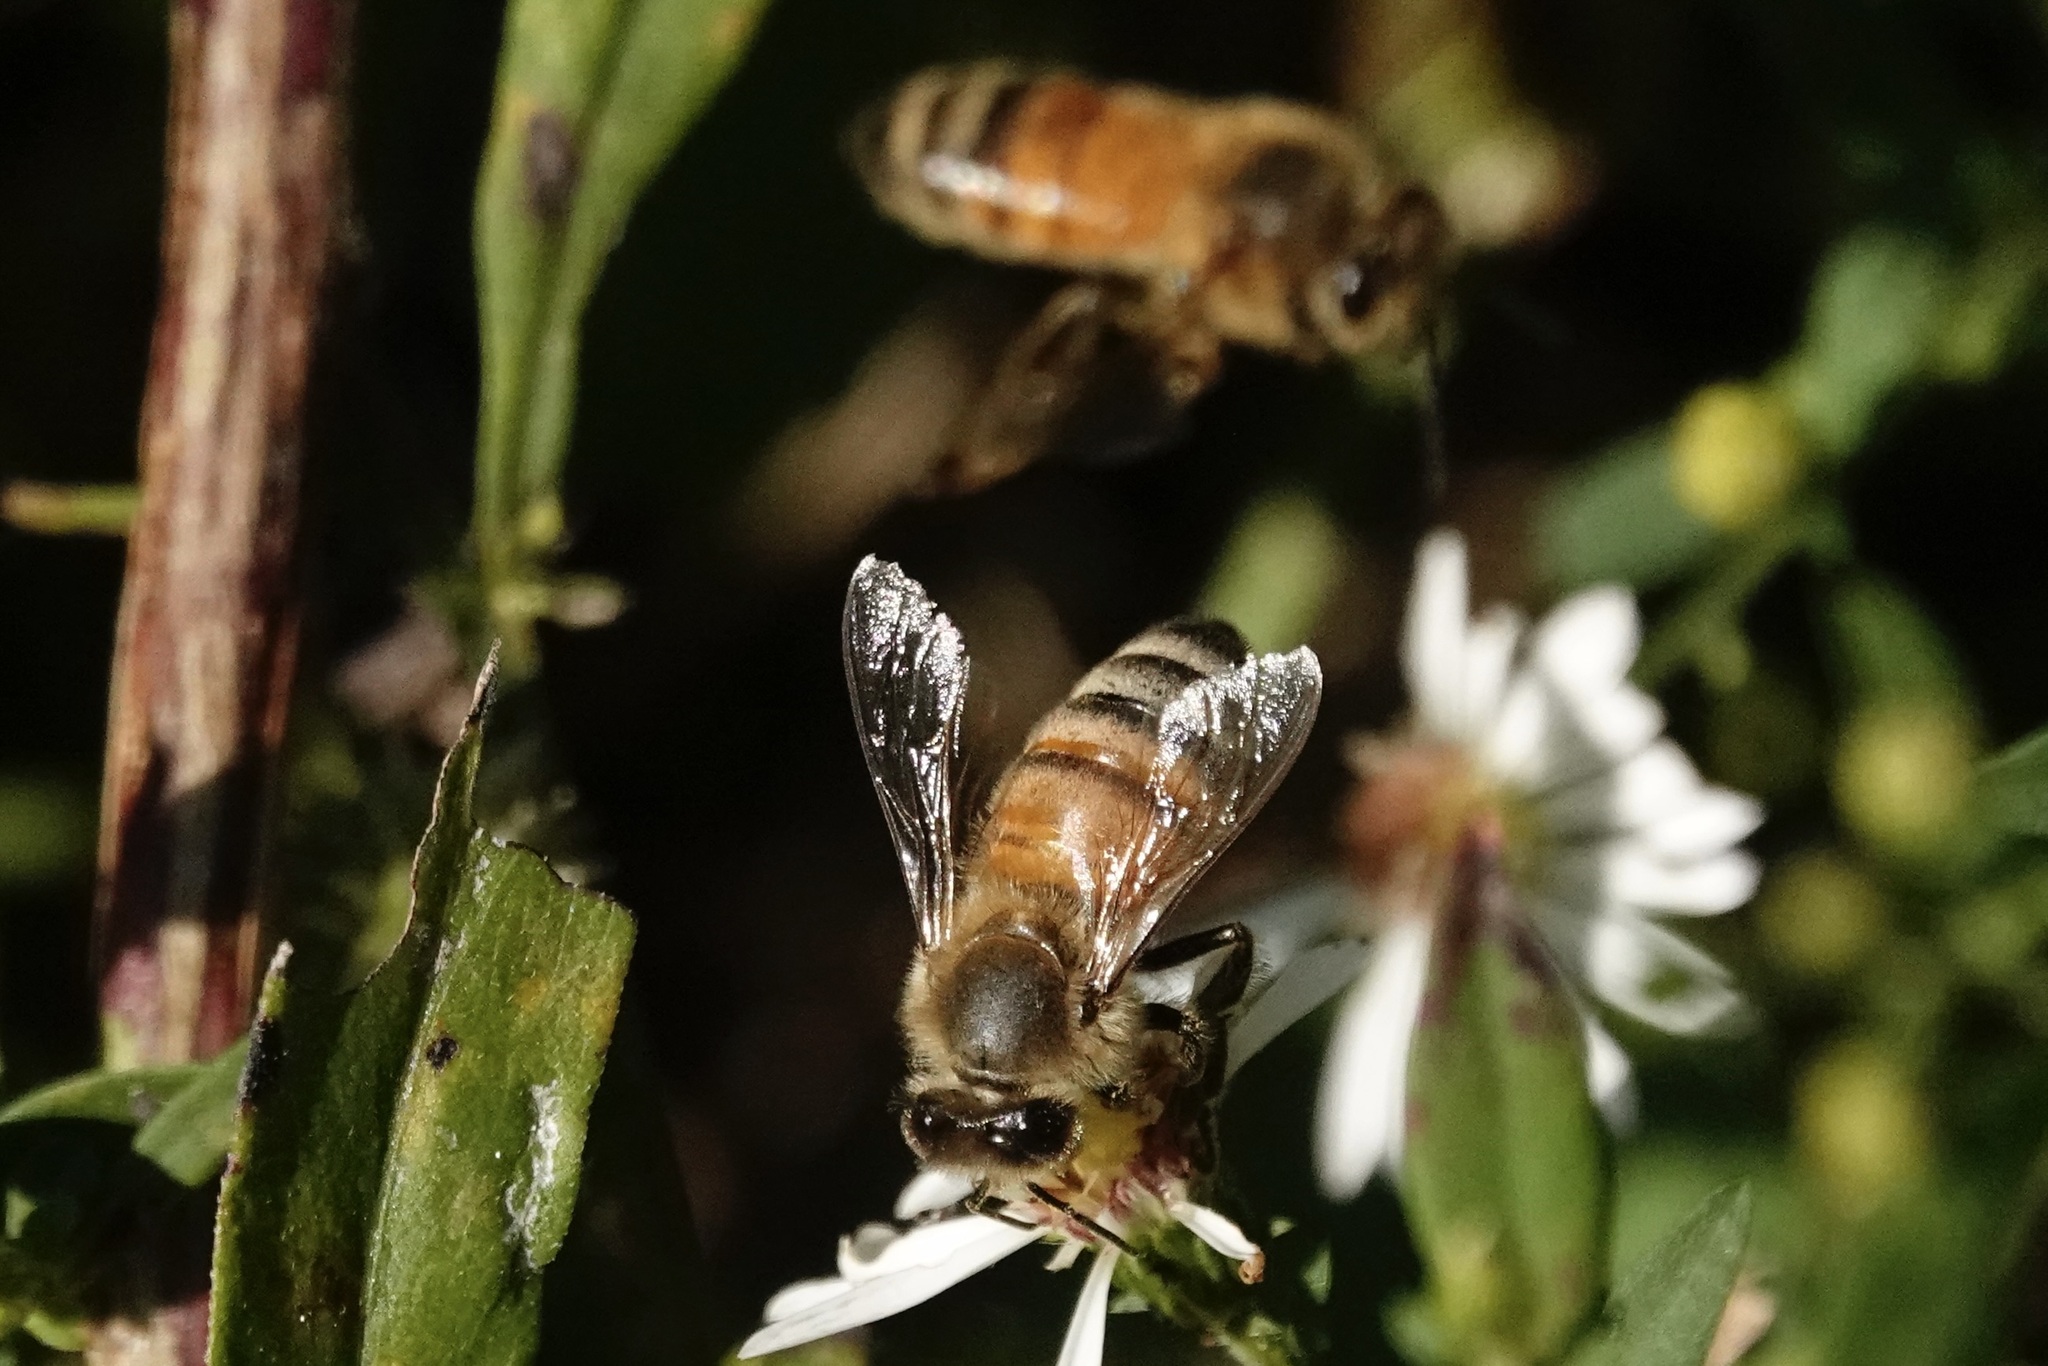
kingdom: Animalia
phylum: Arthropoda
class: Insecta
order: Hymenoptera
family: Apidae
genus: Apis
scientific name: Apis mellifera
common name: Honey bee
